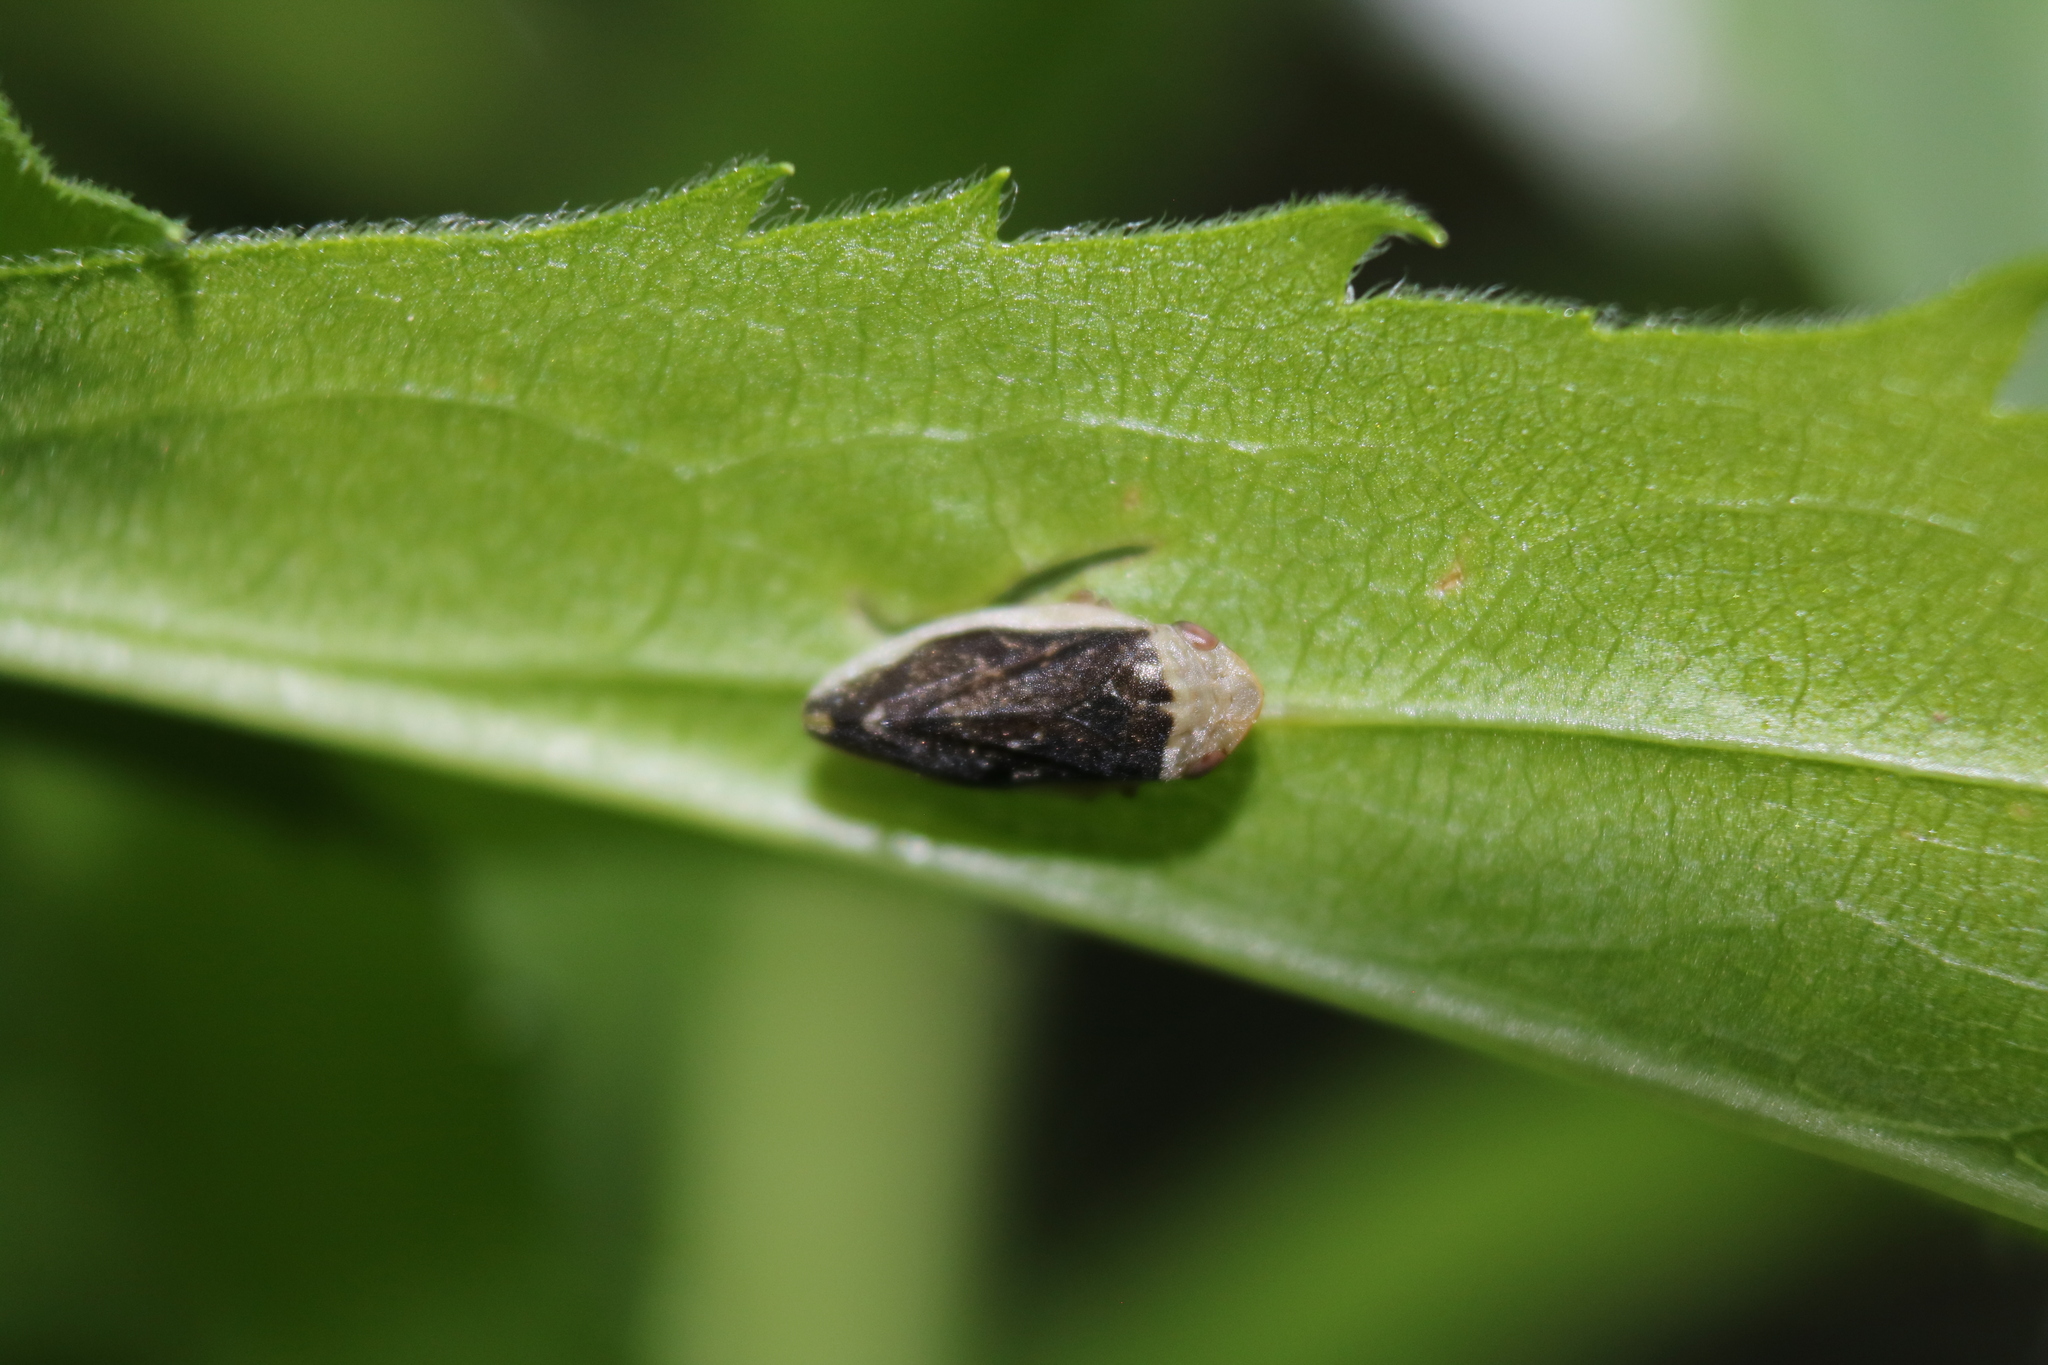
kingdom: Animalia
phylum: Arthropoda
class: Insecta
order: Hemiptera
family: Aphrophoridae
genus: Philaenus
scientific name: Philaenus spumarius
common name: Meadow spittlebug
